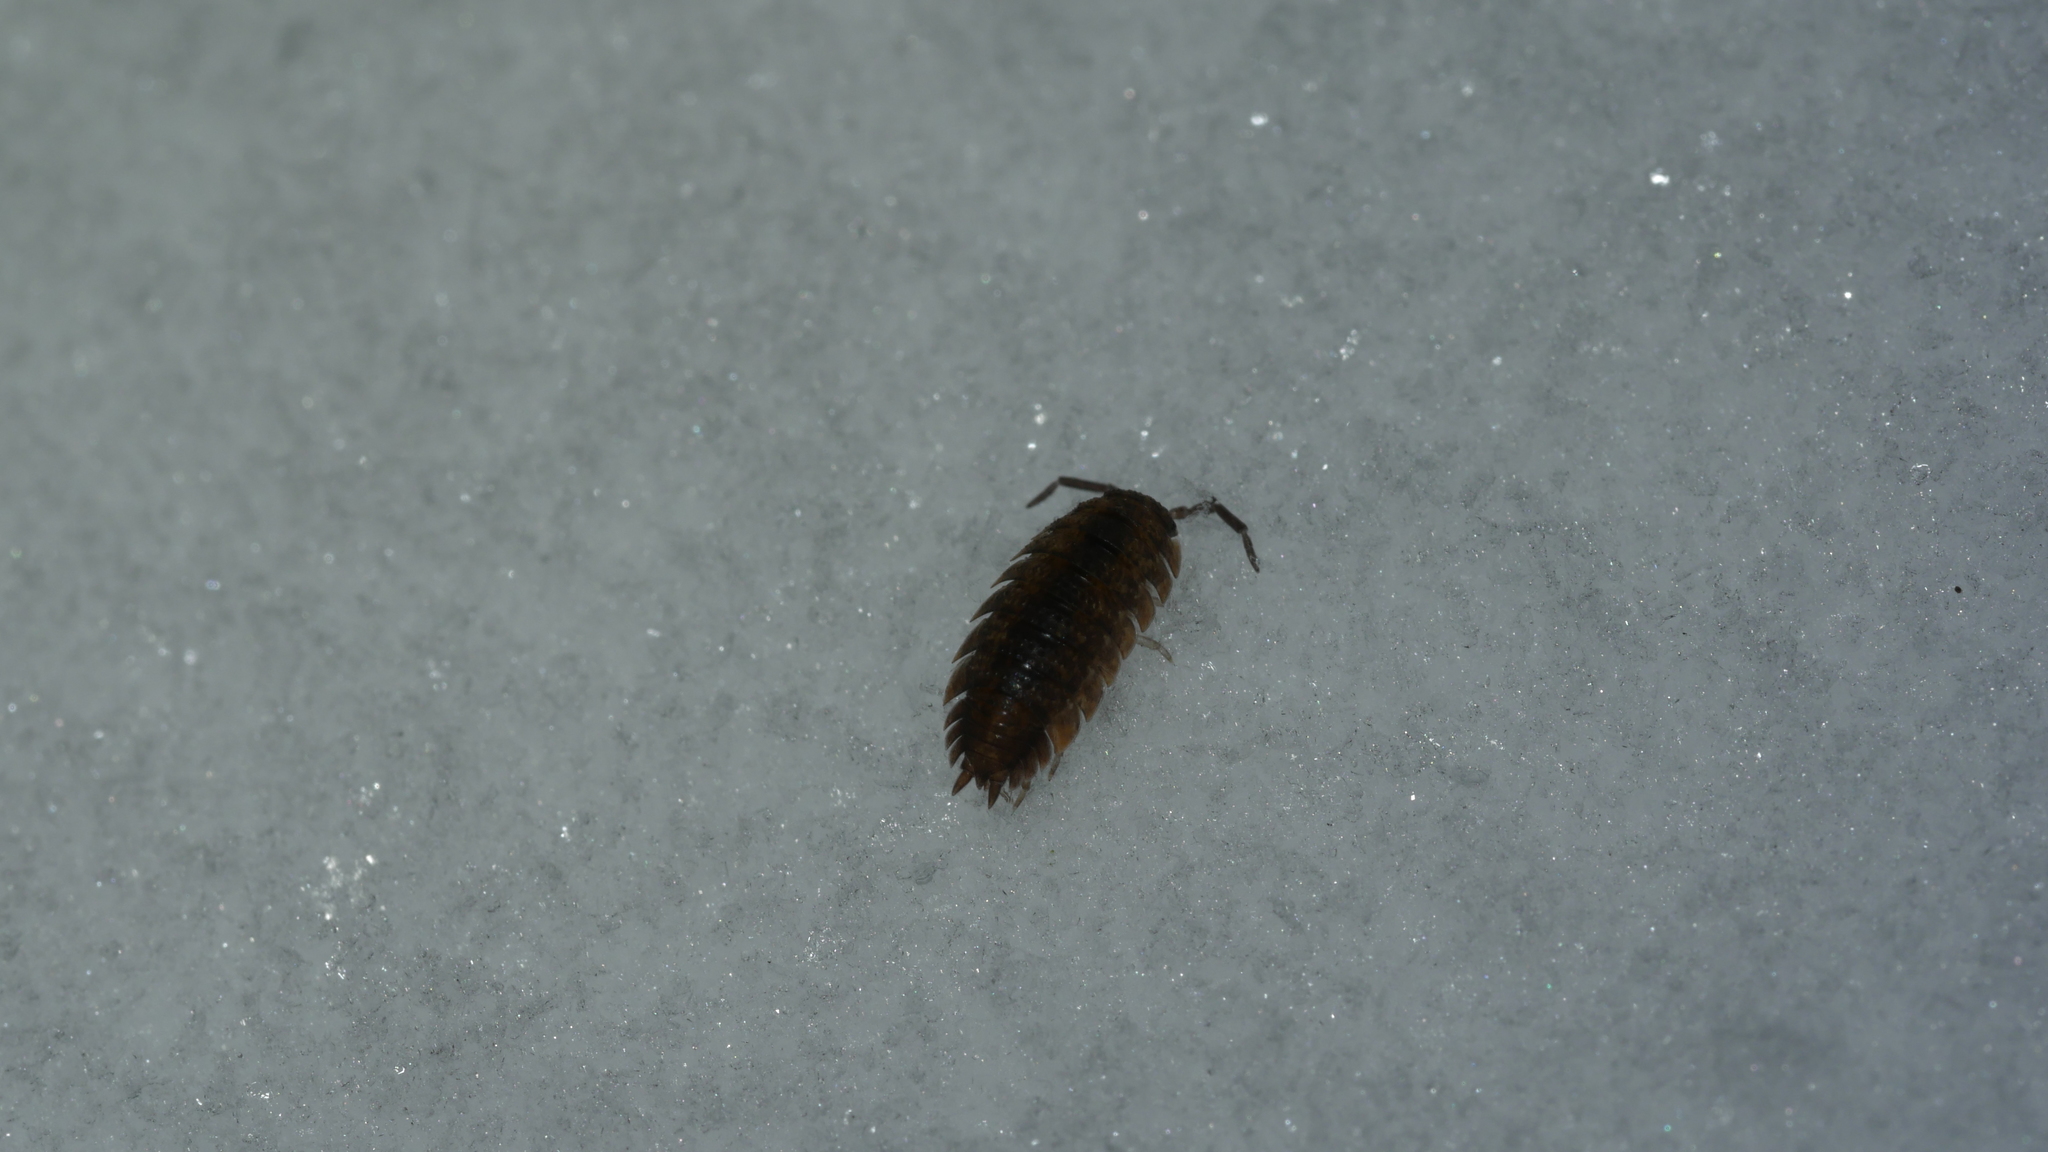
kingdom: Animalia
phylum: Arthropoda
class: Malacostraca
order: Isopoda
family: Porcellionidae
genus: Porcellio
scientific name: Porcellio scaber
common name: Common rough woodlouse
